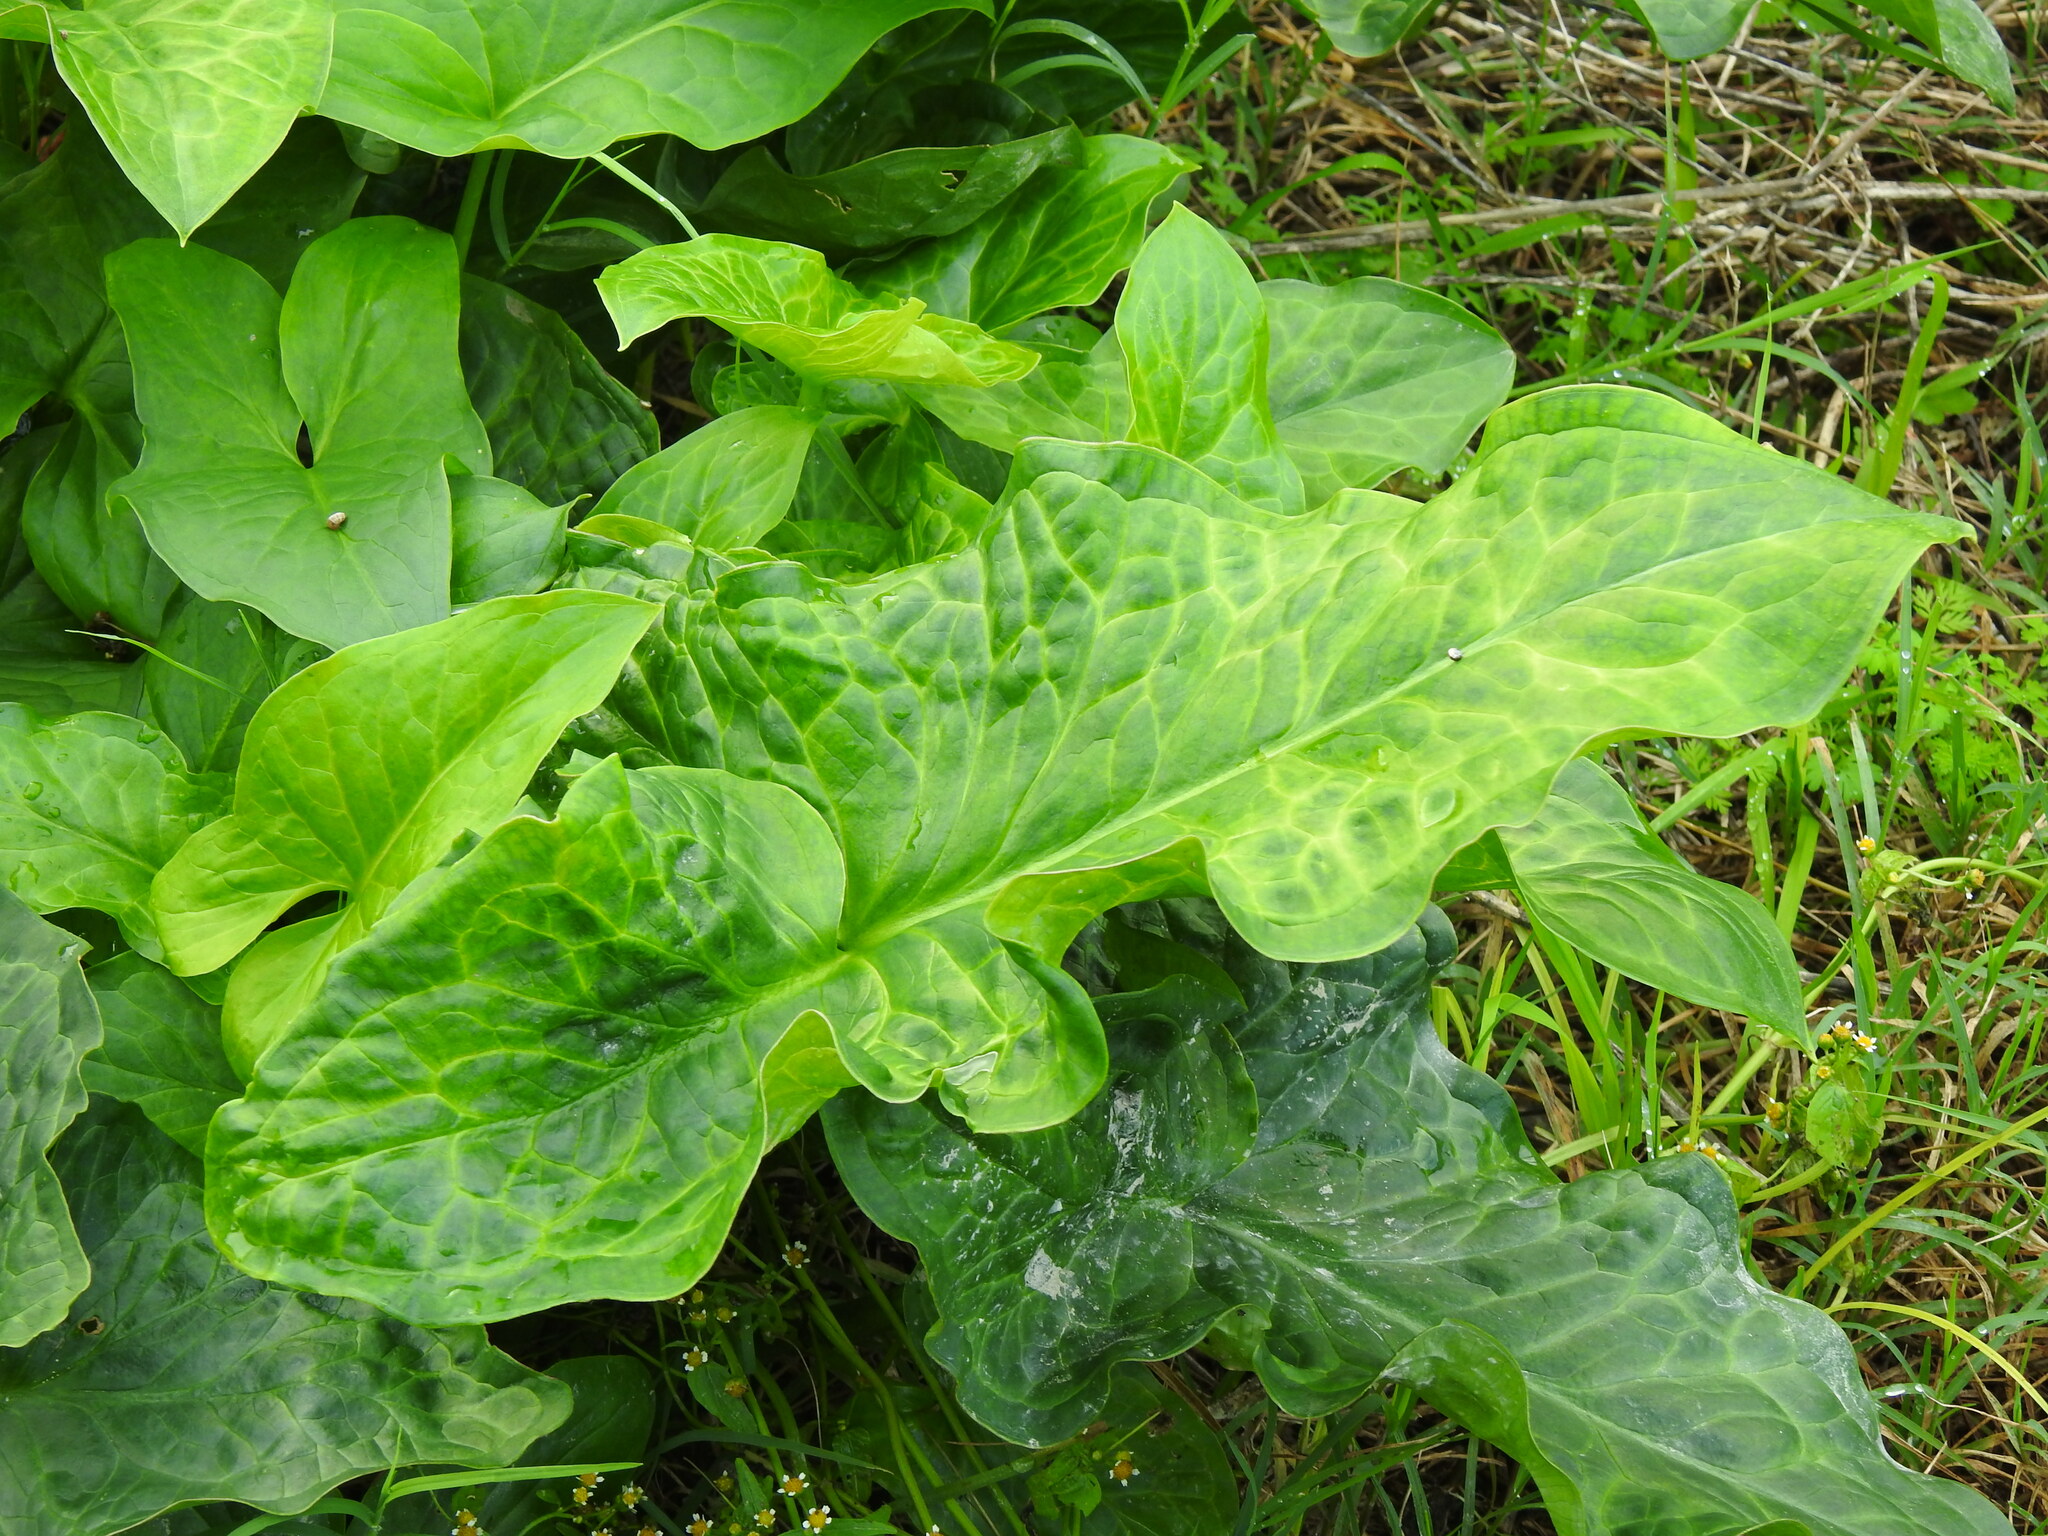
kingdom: Plantae
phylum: Tracheophyta
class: Liliopsida
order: Alismatales
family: Araceae
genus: Arum
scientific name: Arum italicum
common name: Italian lords-and-ladies
